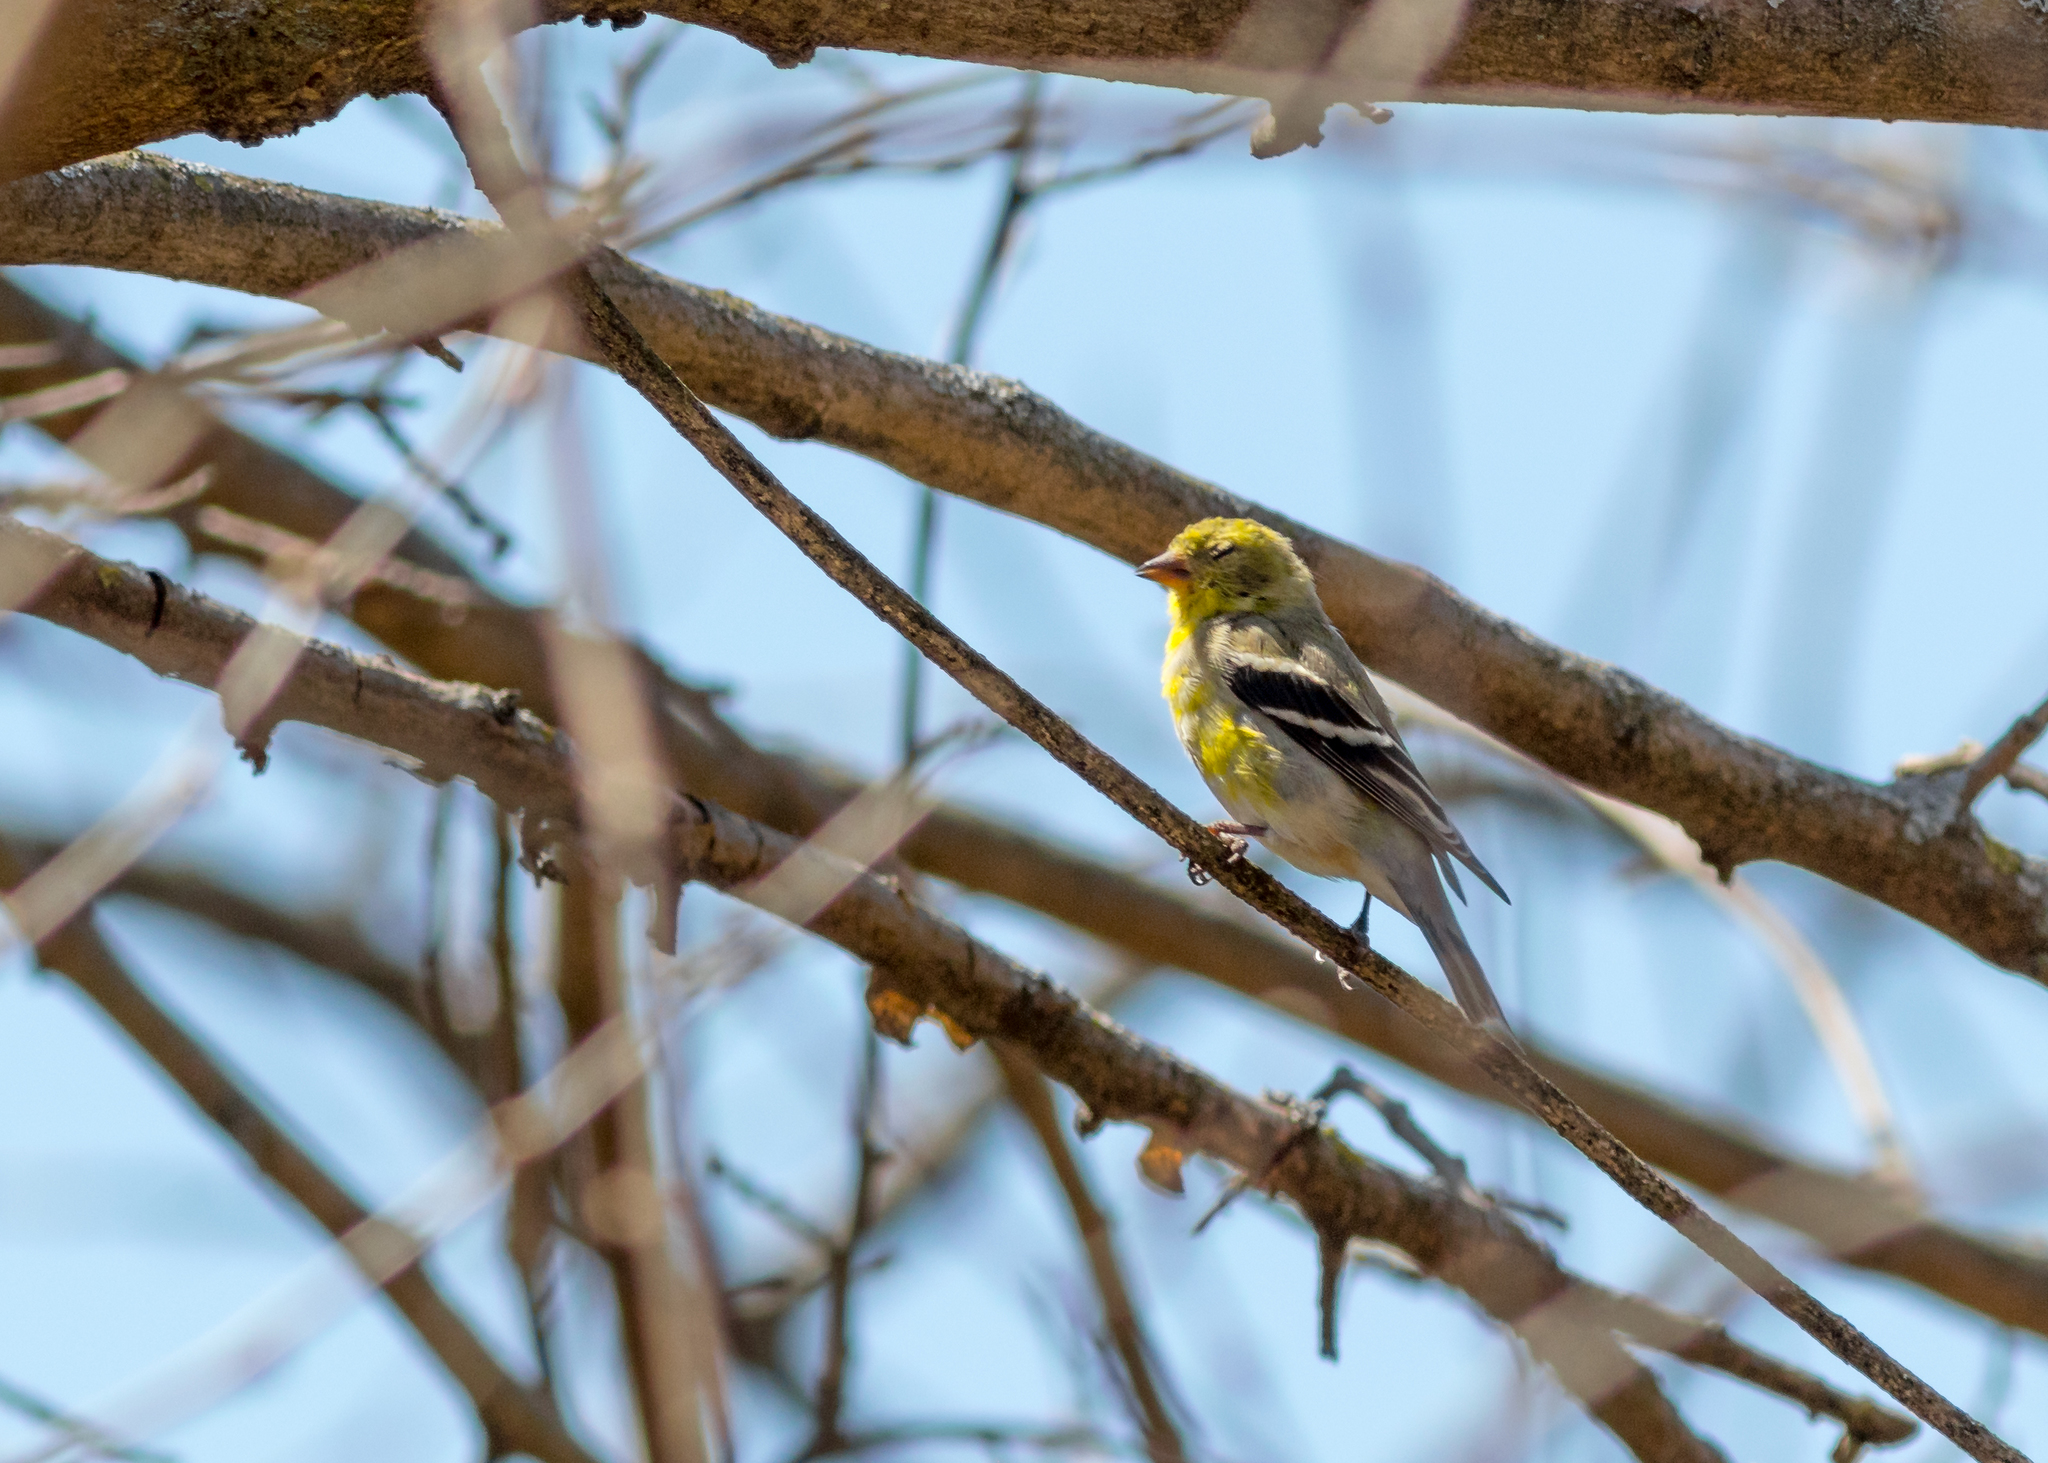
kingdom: Animalia
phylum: Chordata
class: Aves
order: Passeriformes
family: Fringillidae
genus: Spinus
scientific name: Spinus tristis
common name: American goldfinch
